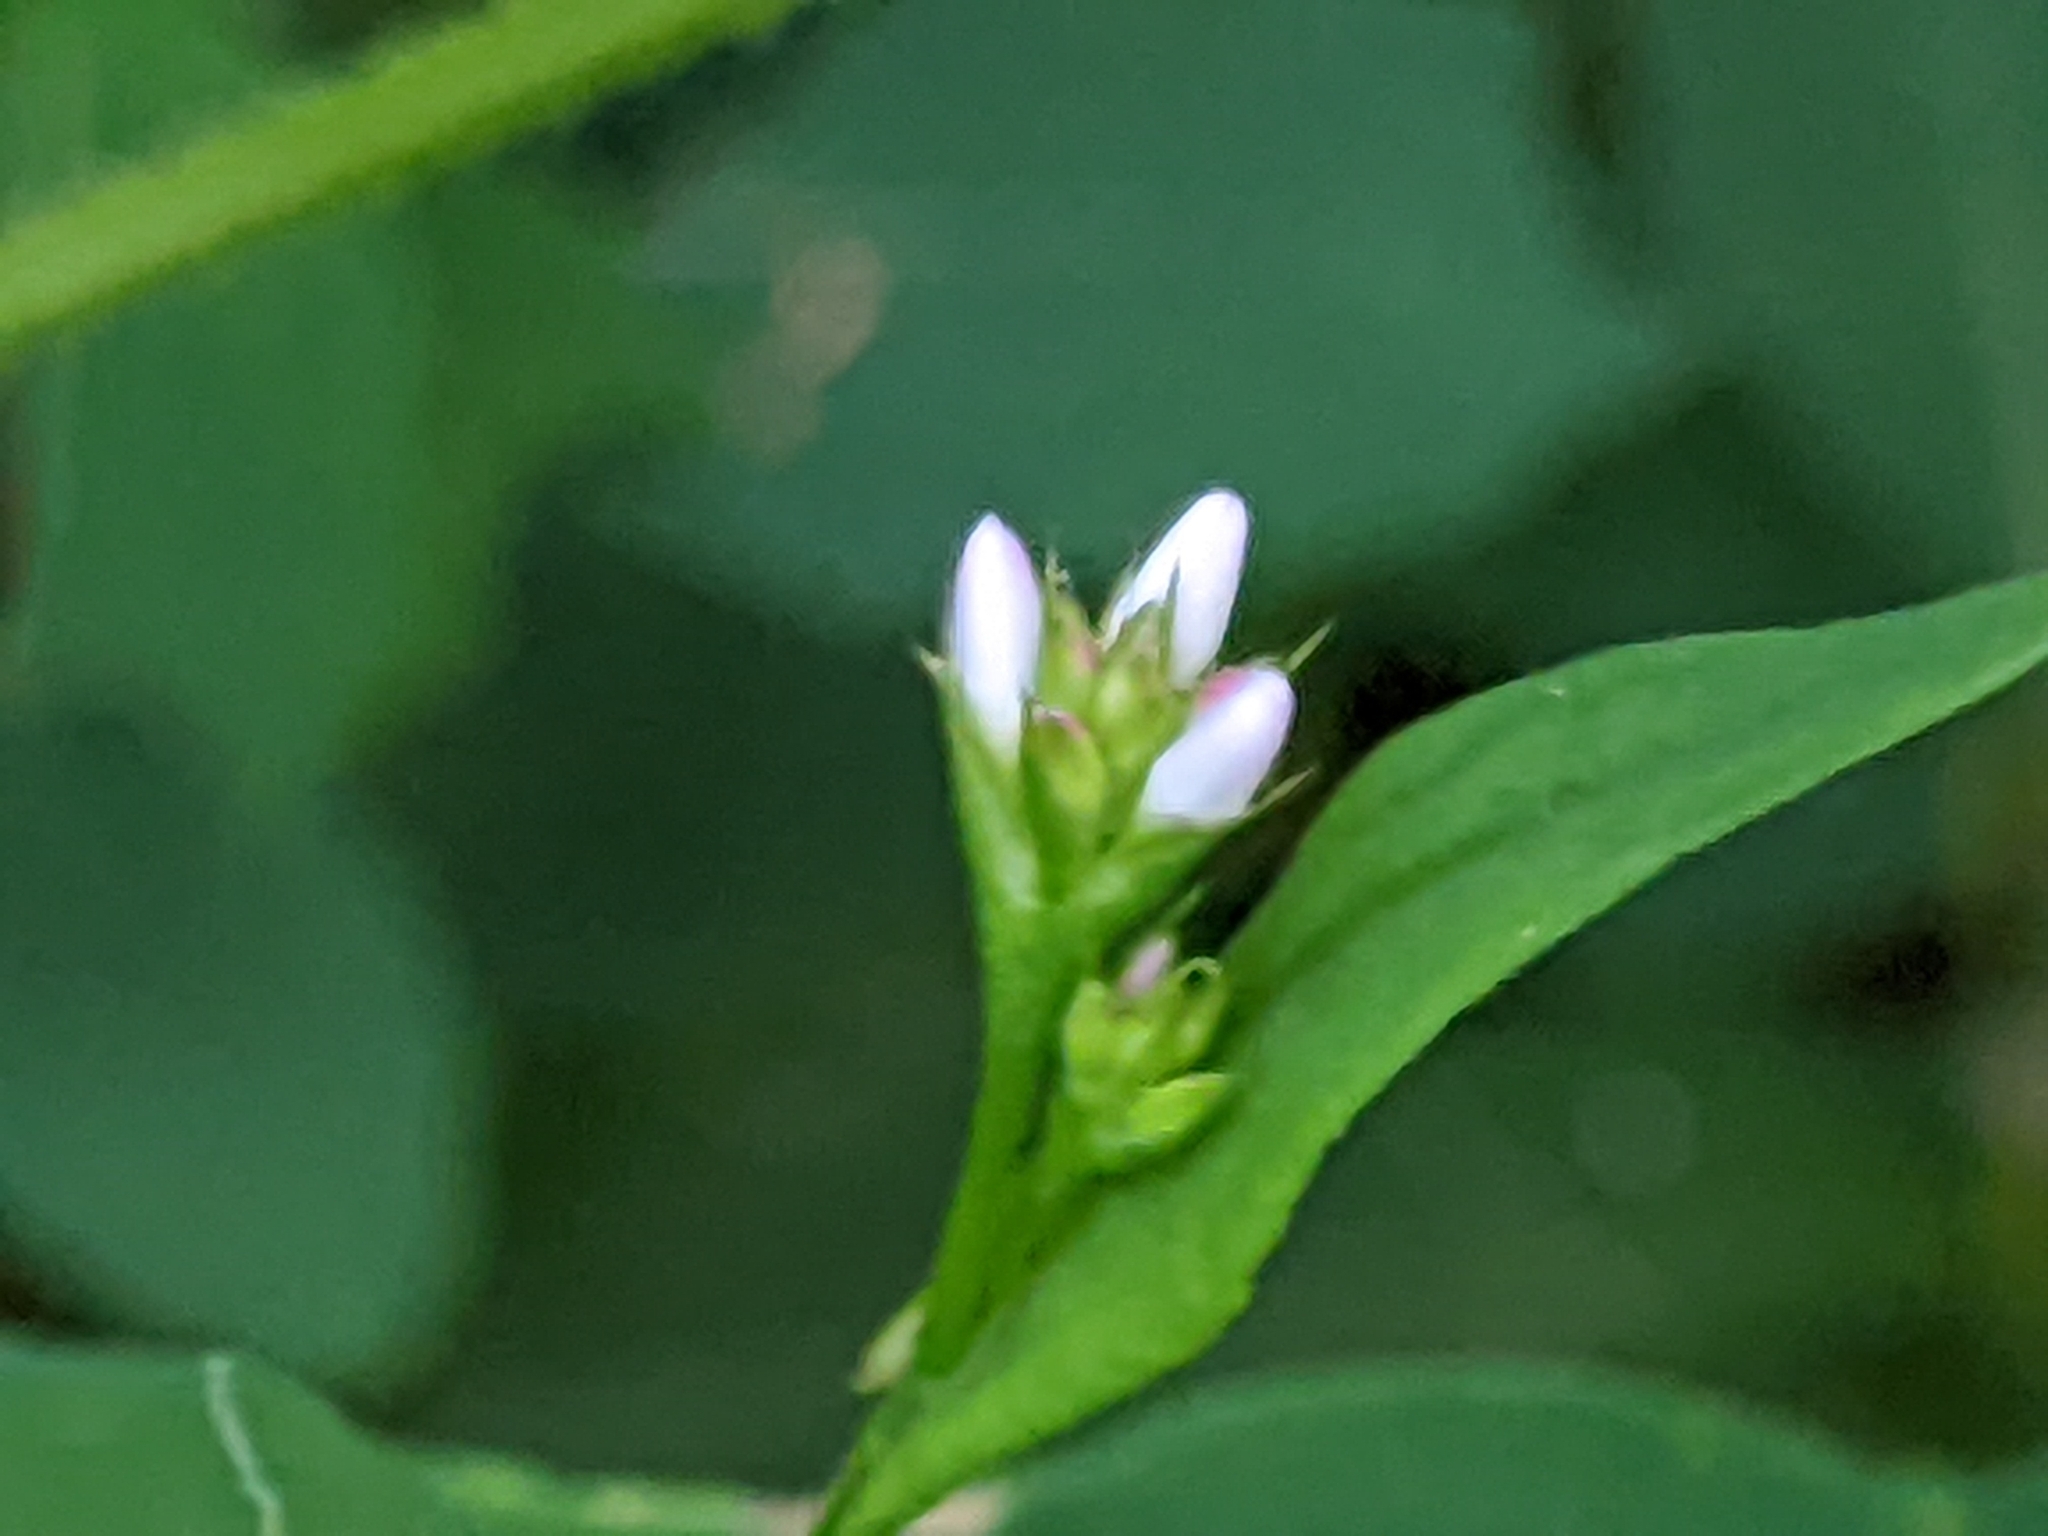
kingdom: Plantae
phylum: Tracheophyta
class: Magnoliopsida
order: Caryophyllales
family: Polygonaceae
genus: Persicaria
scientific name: Persicaria sagittata
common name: American tearthumb
